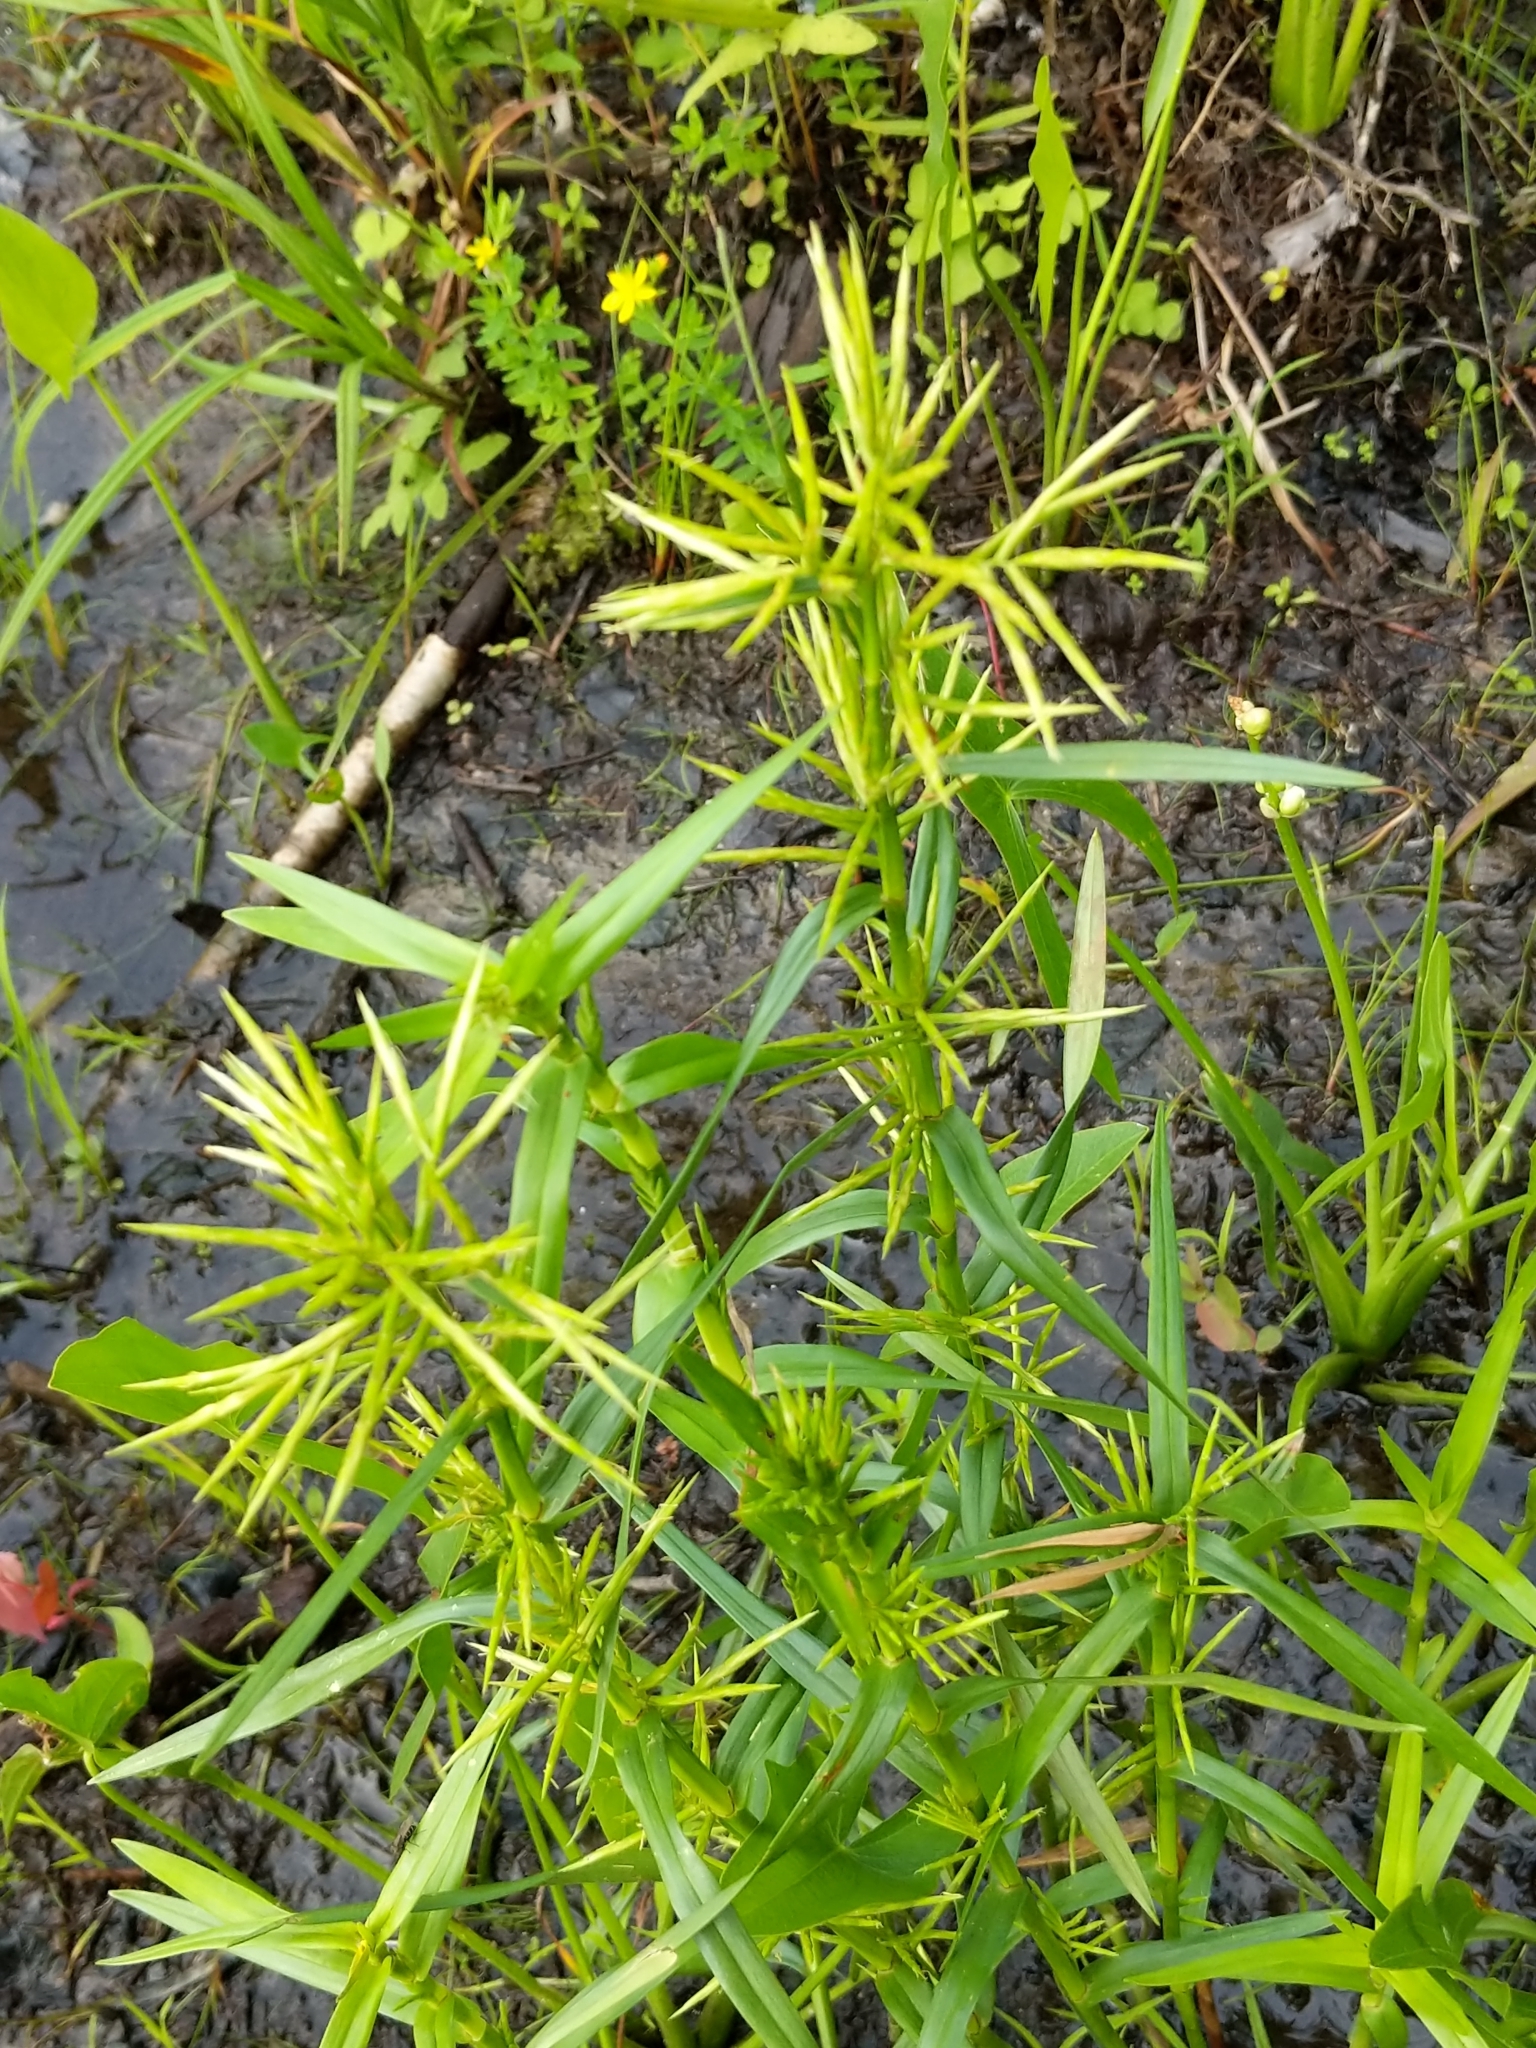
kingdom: Plantae
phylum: Tracheophyta
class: Liliopsida
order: Poales
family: Cyperaceae
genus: Dulichium
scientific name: Dulichium arundinaceum
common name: Three-way sedge
